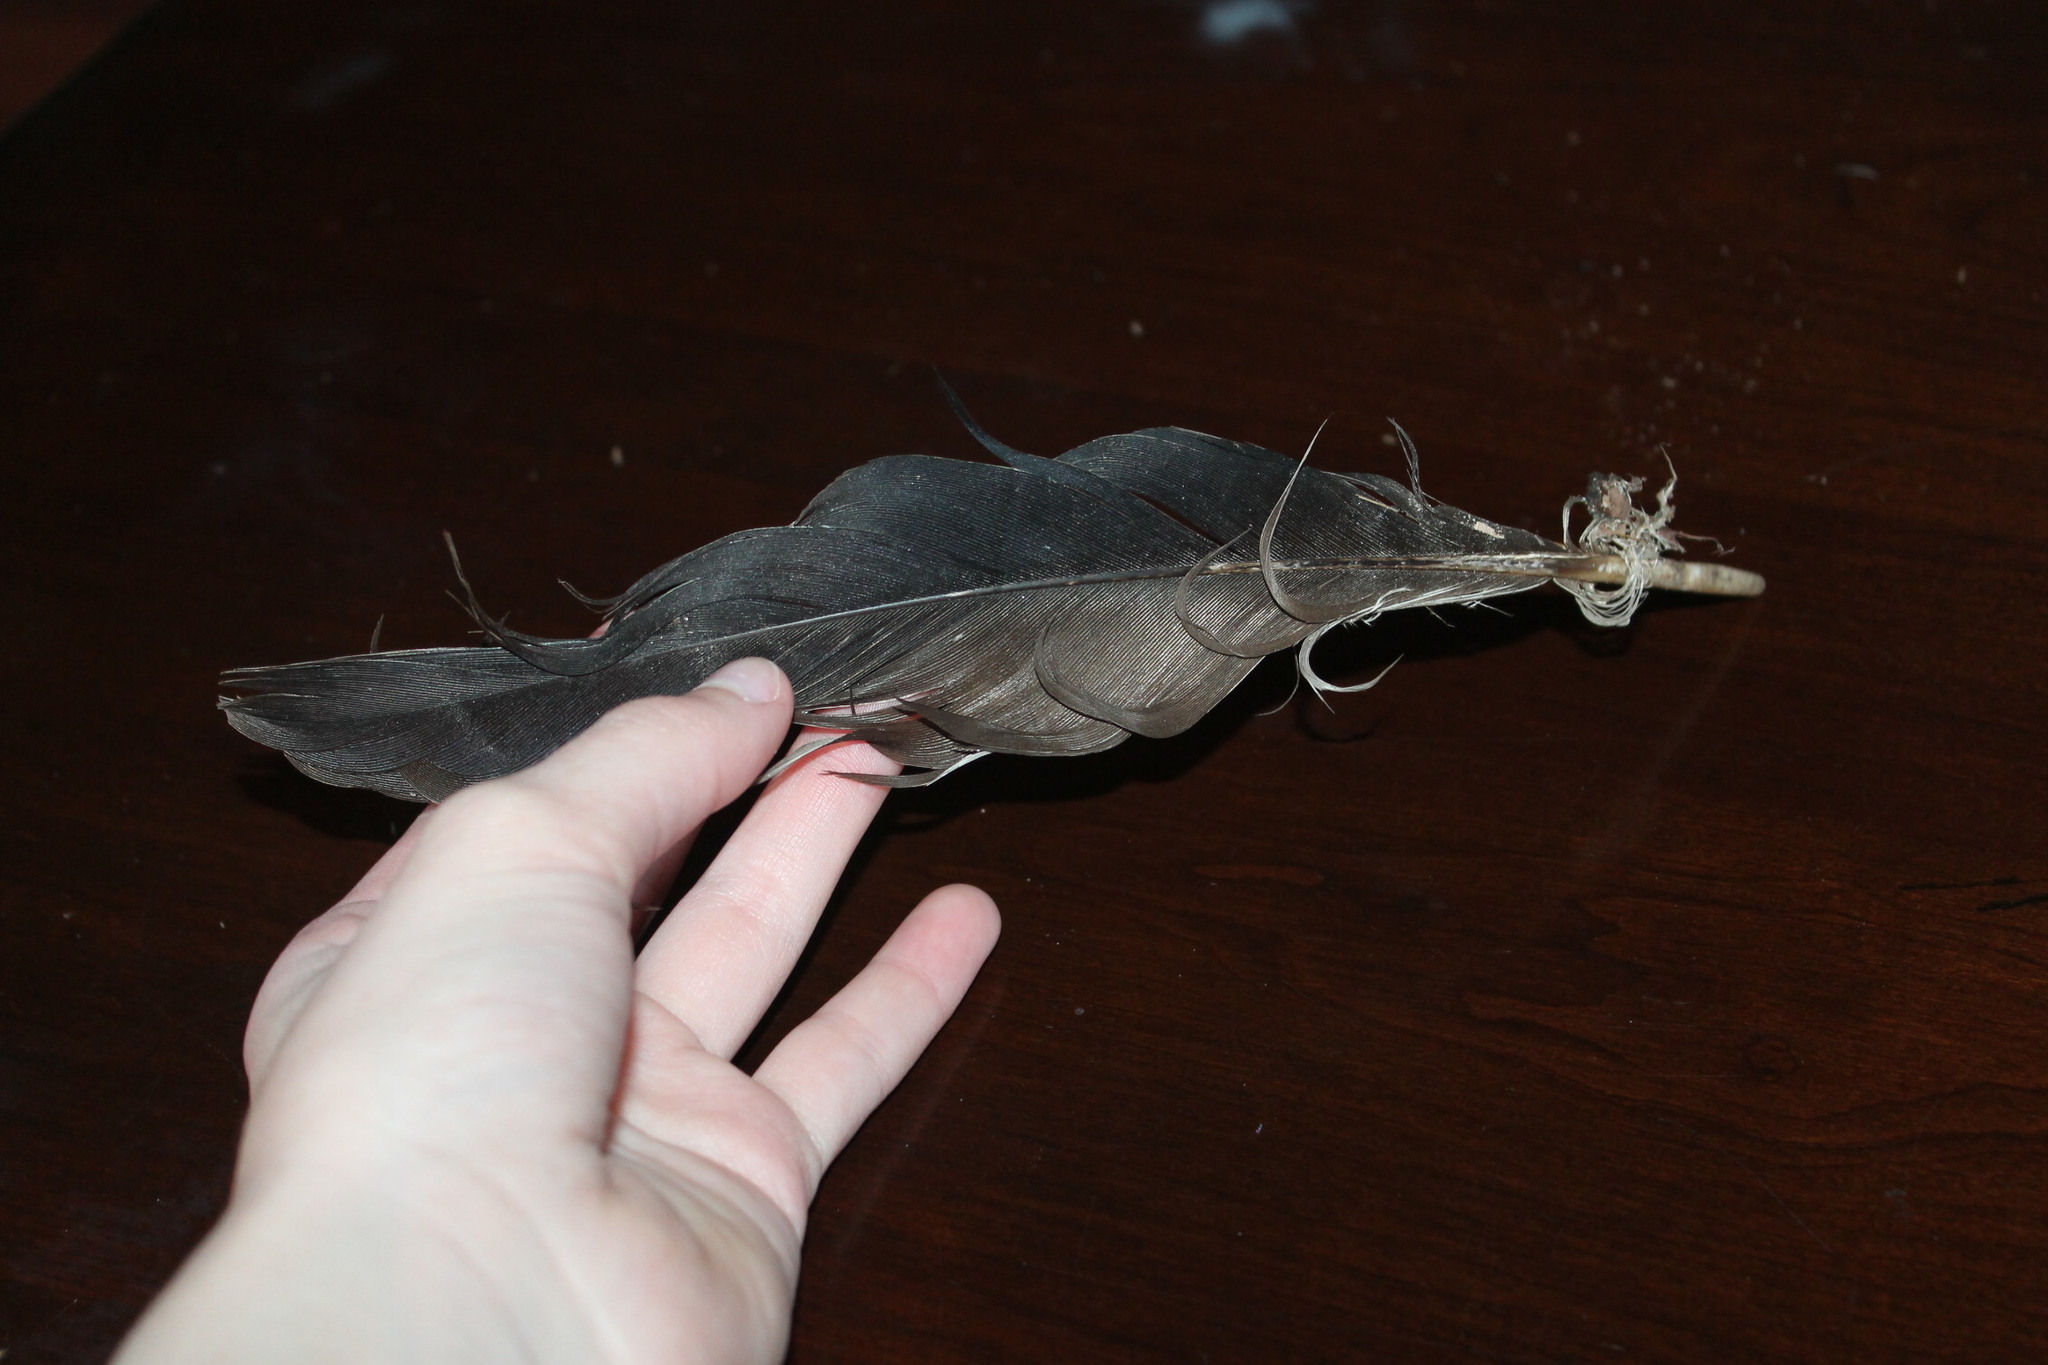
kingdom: Animalia
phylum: Chordata
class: Aves
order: Accipitriformes
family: Cathartidae
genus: Cathartes
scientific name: Cathartes aura
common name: Turkey vulture
